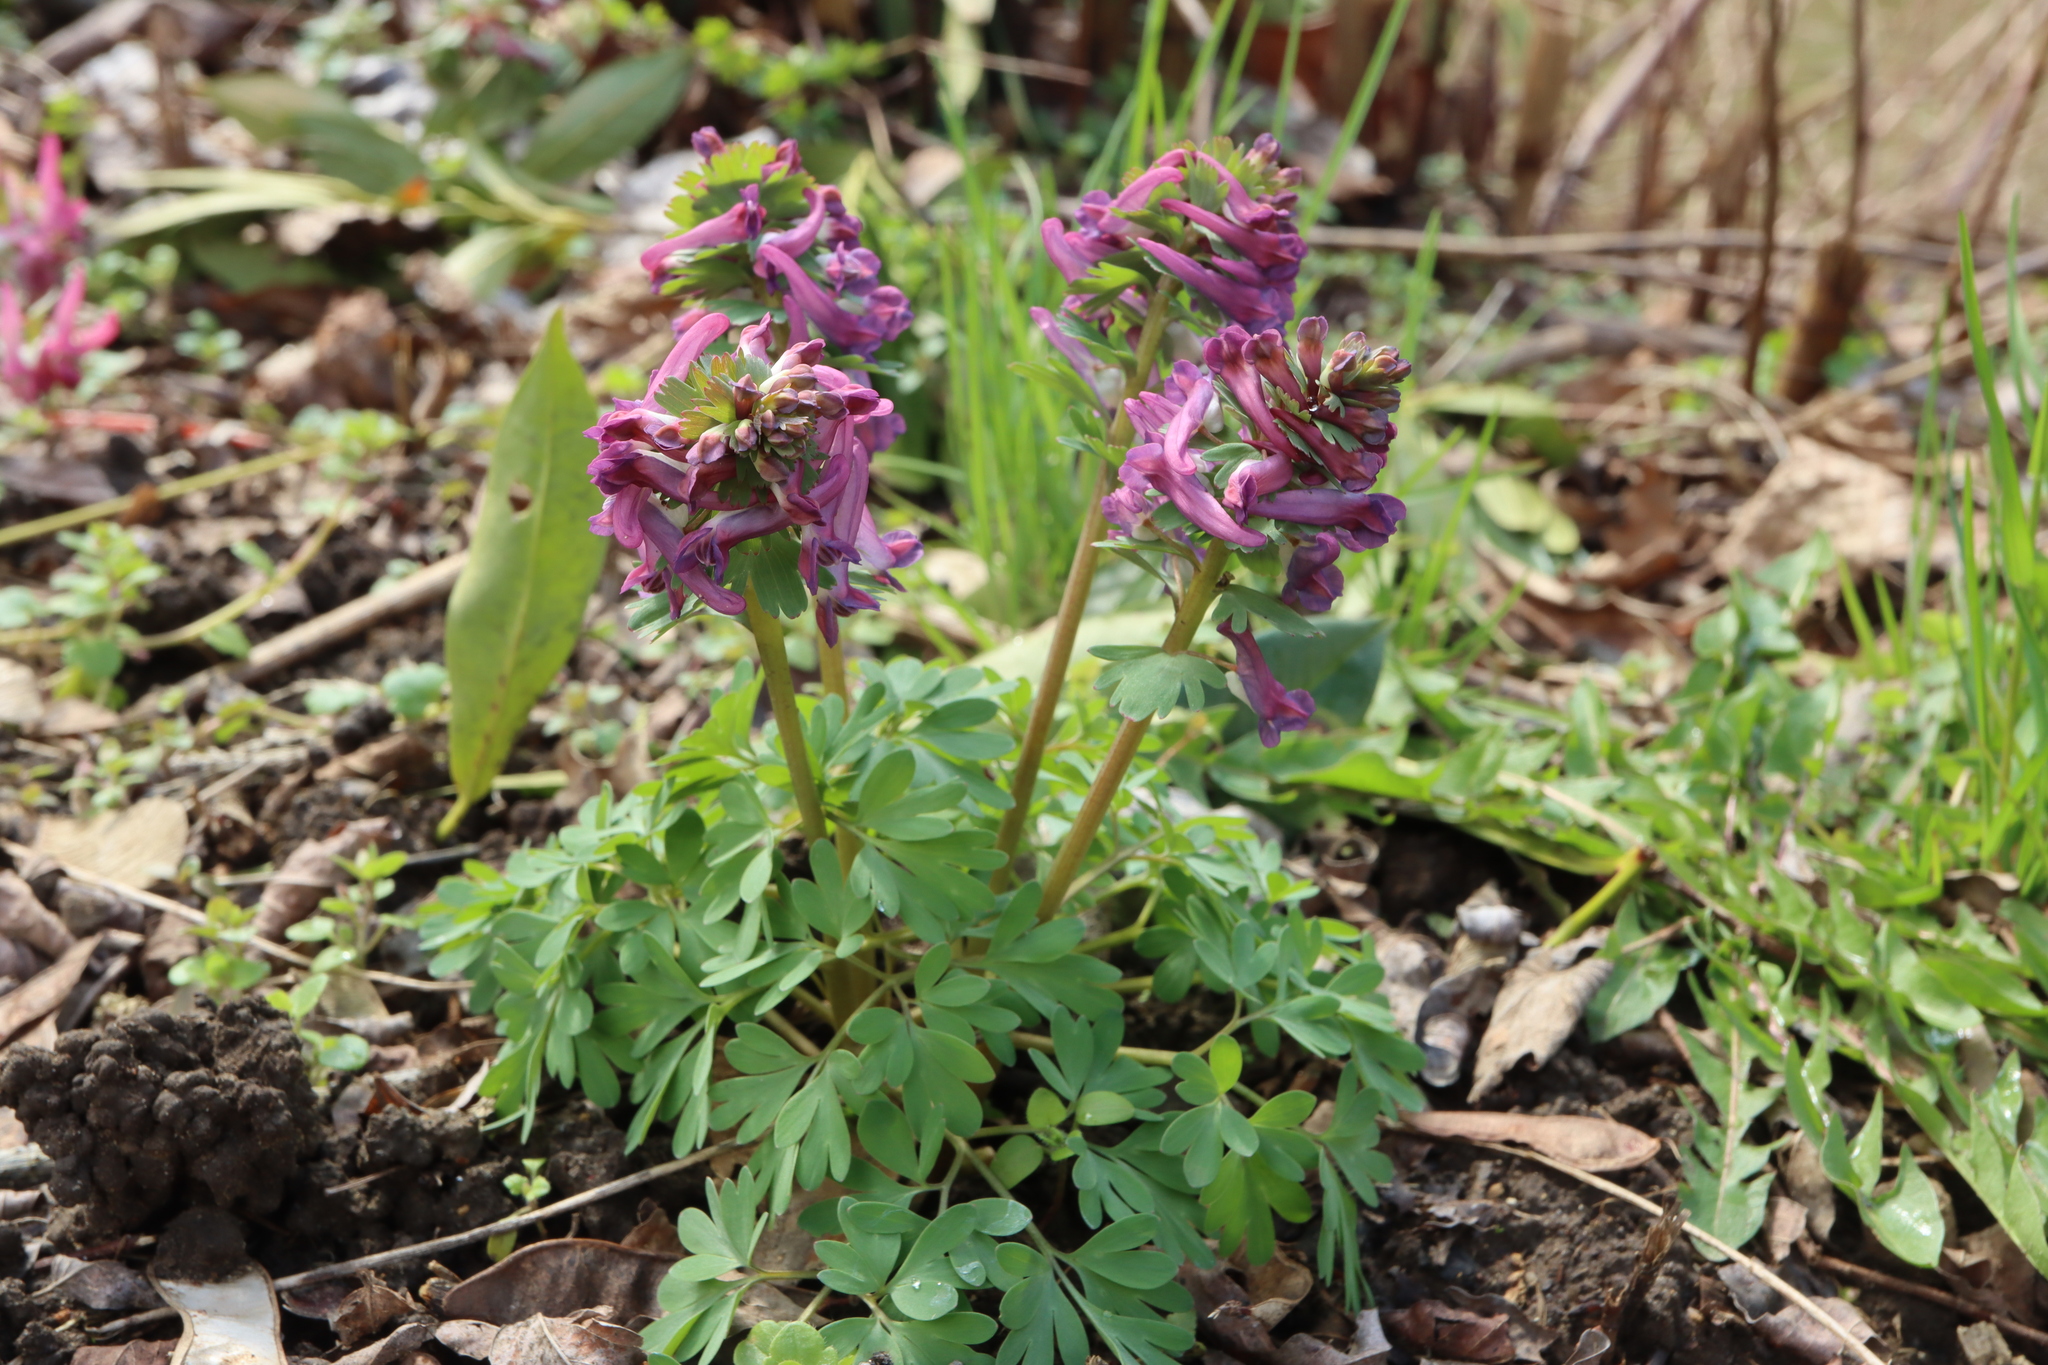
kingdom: Plantae
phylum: Tracheophyta
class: Magnoliopsida
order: Ranunculales
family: Papaveraceae
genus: Corydalis
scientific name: Corydalis solida
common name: Bird-in-a-bush
